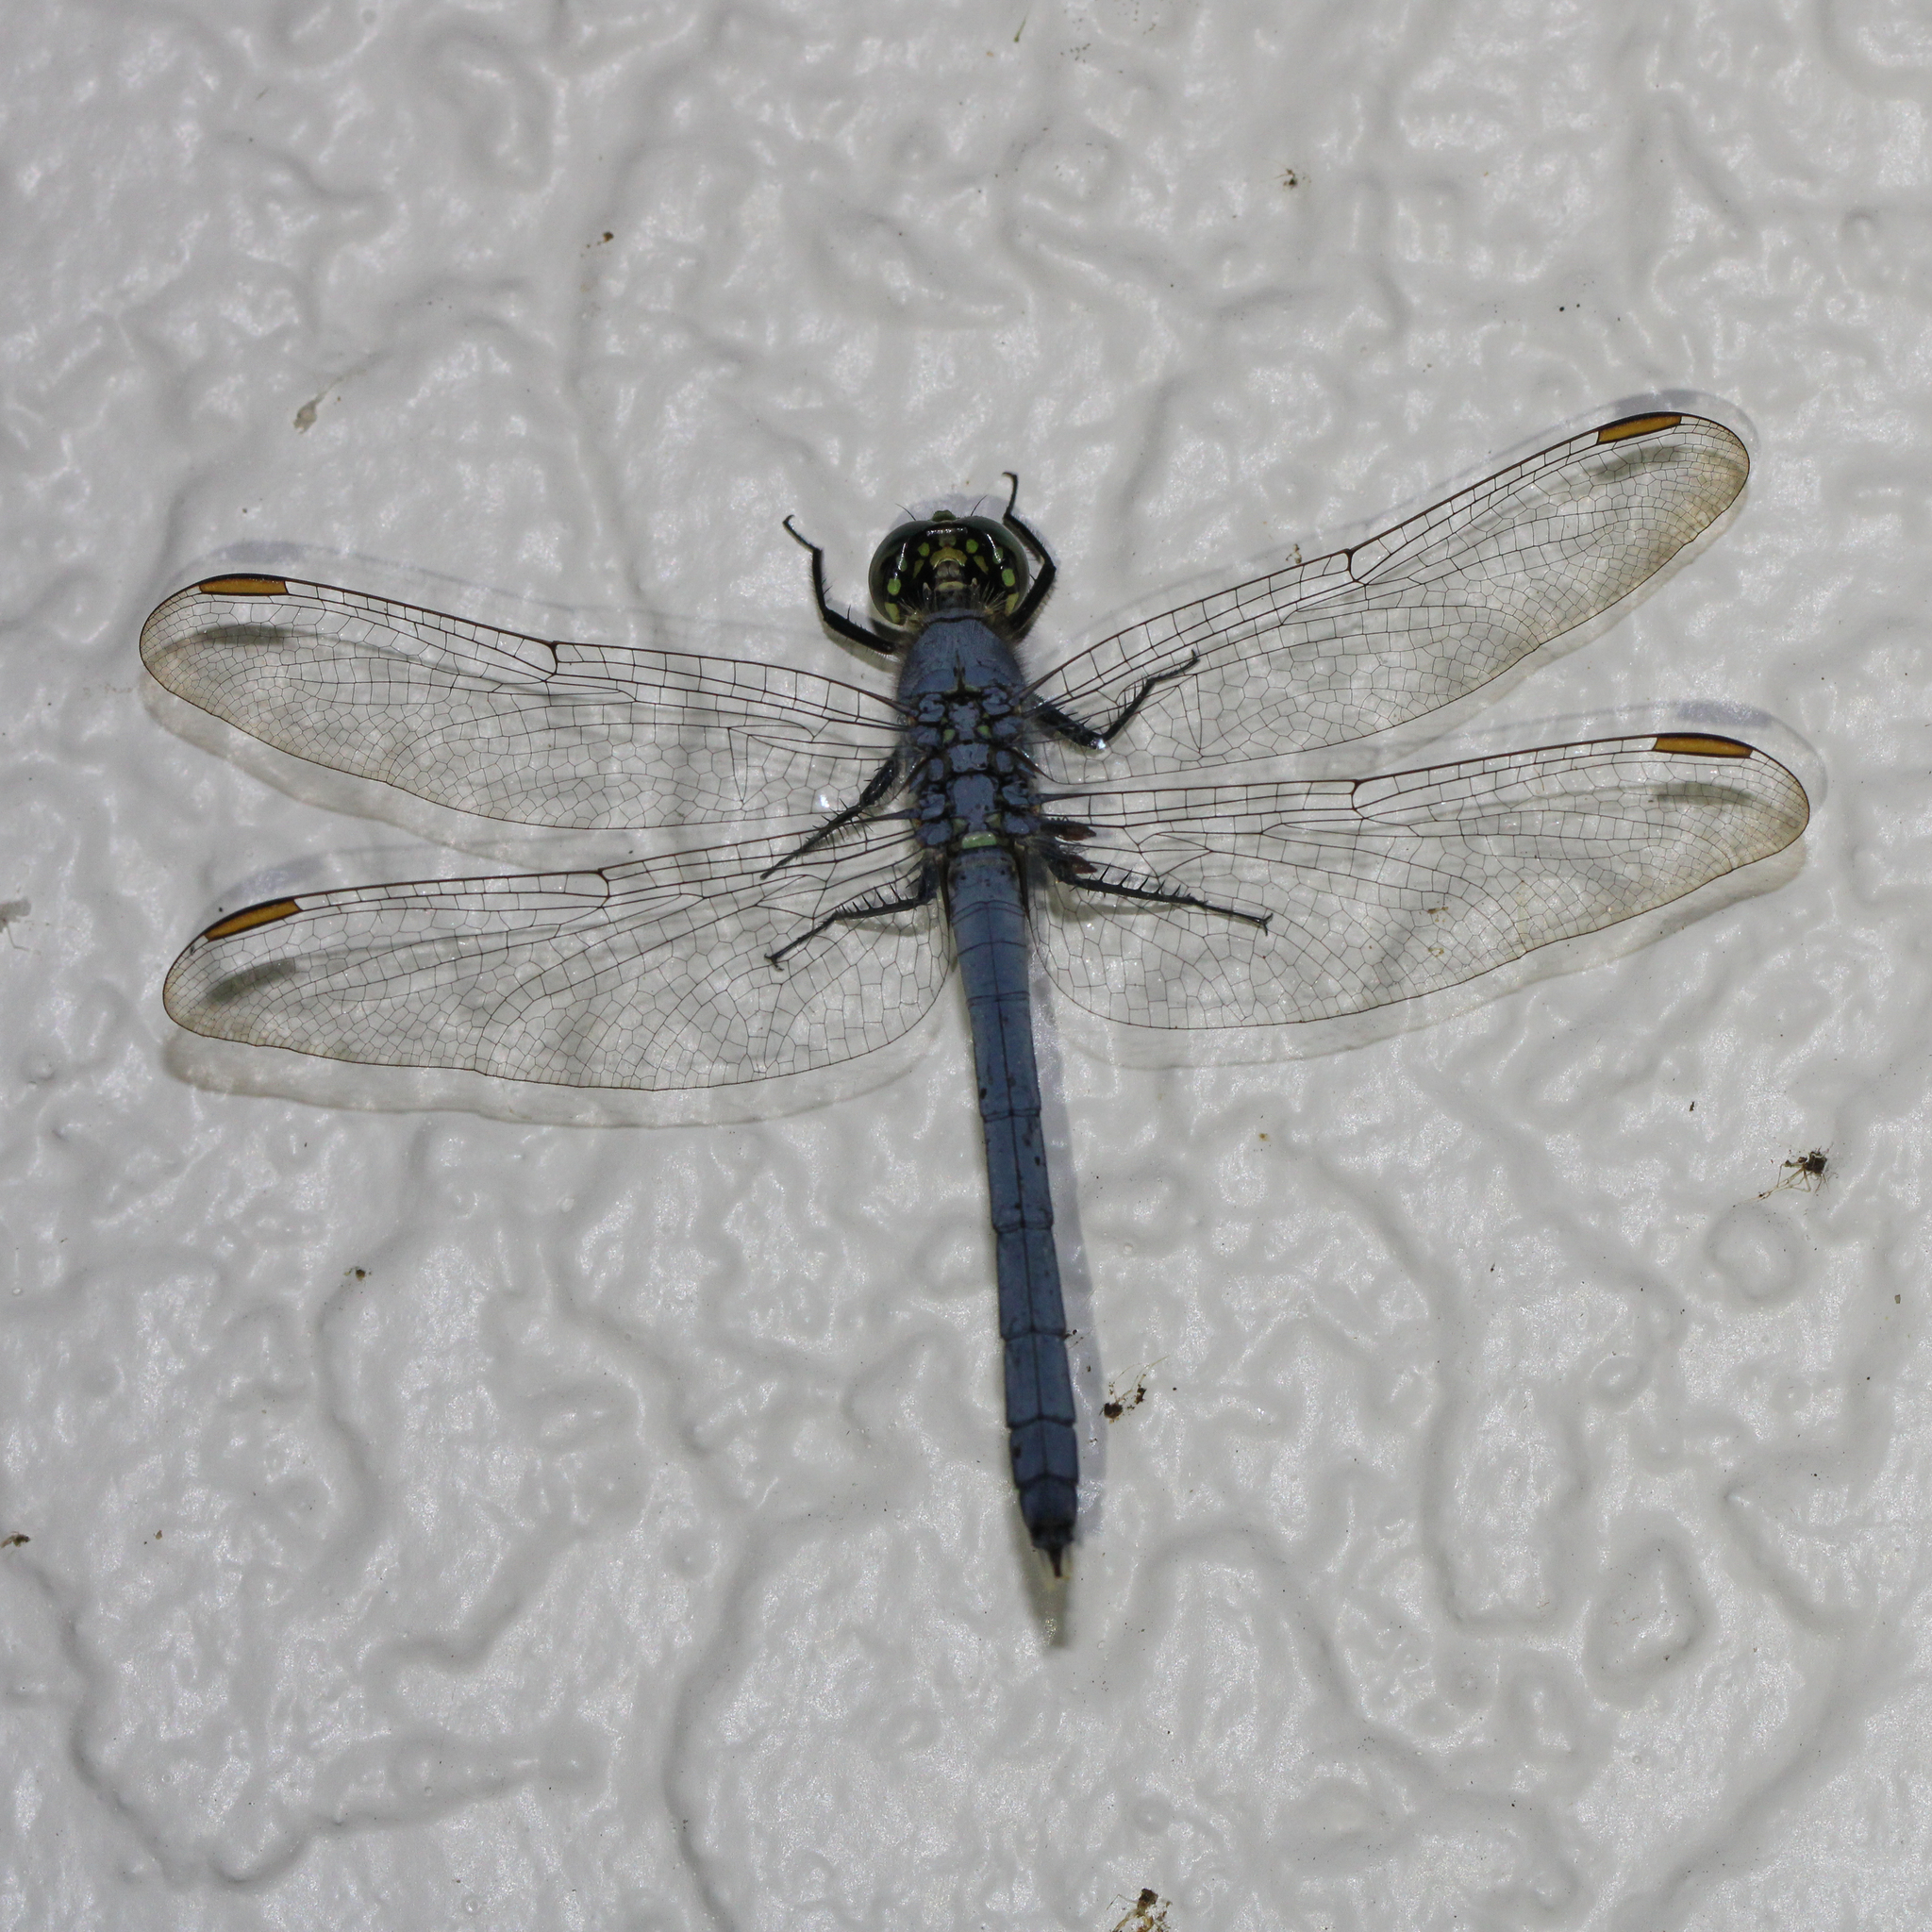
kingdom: Animalia
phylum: Arthropoda
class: Insecta
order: Odonata
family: Libellulidae
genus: Erythemis
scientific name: Erythemis simplicicollis
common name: Eastern pondhawk
